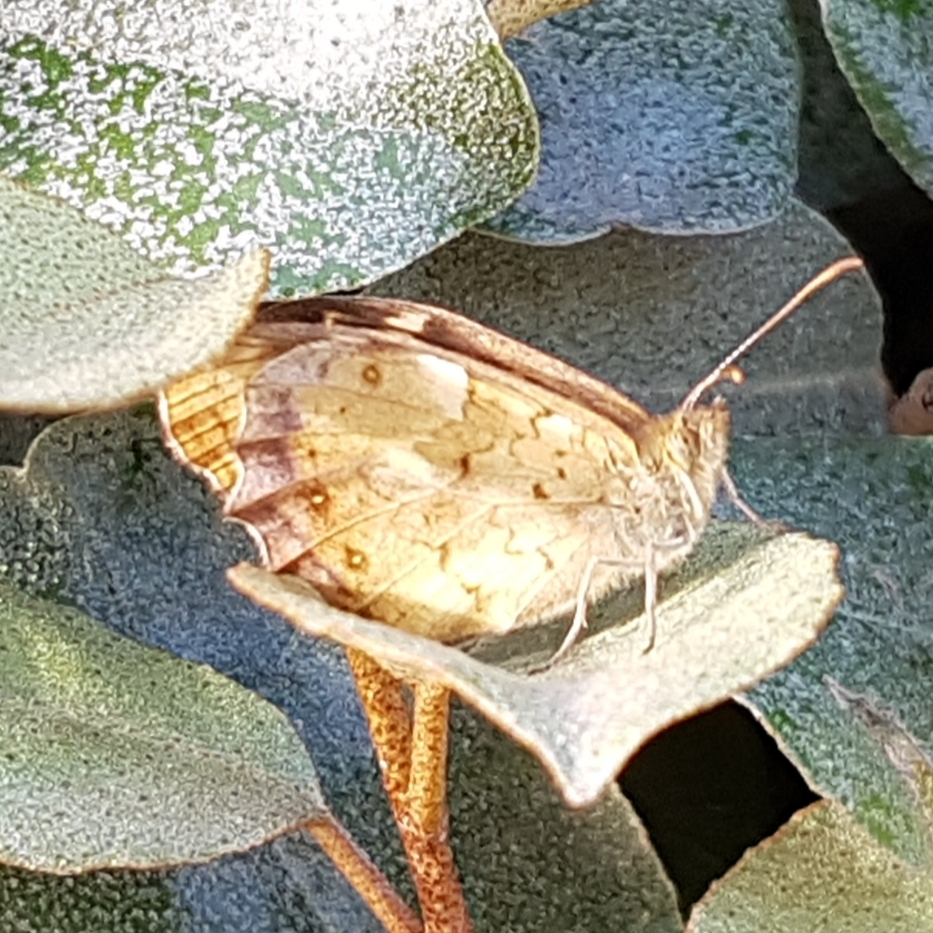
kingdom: Animalia
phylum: Arthropoda
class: Insecta
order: Lepidoptera
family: Nymphalidae
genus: Pararge
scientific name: Pararge aegeria
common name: Speckled wood
